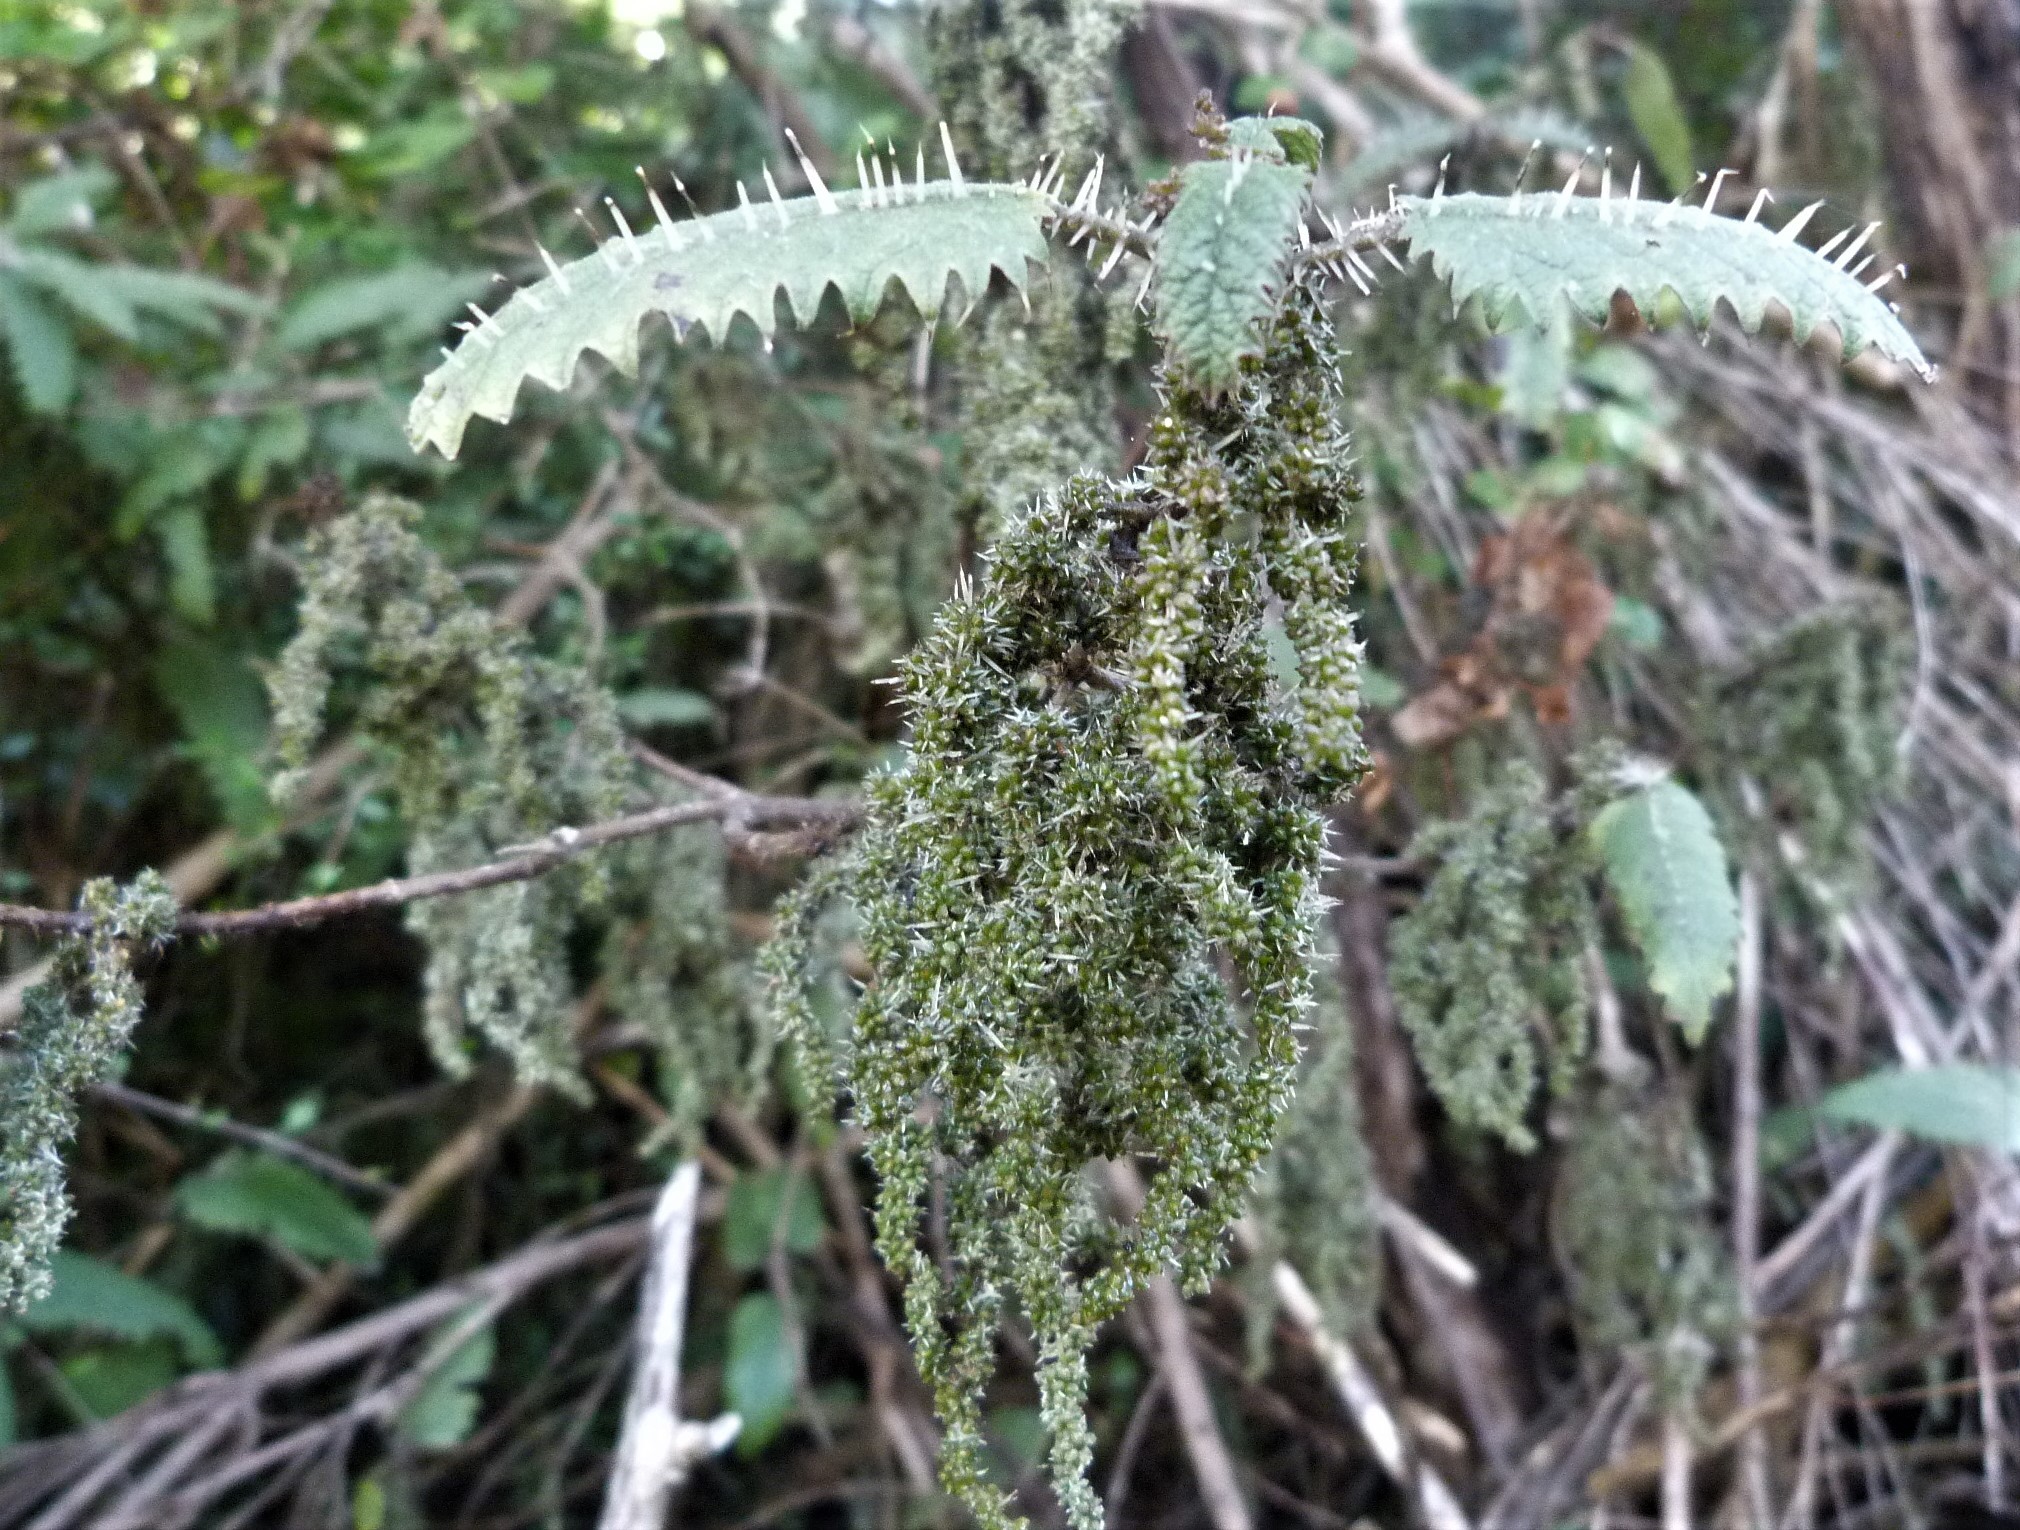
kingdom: Plantae
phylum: Tracheophyta
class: Magnoliopsida
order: Rosales
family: Urticaceae
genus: Urtica
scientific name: Urtica ferox
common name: Tree nettle
